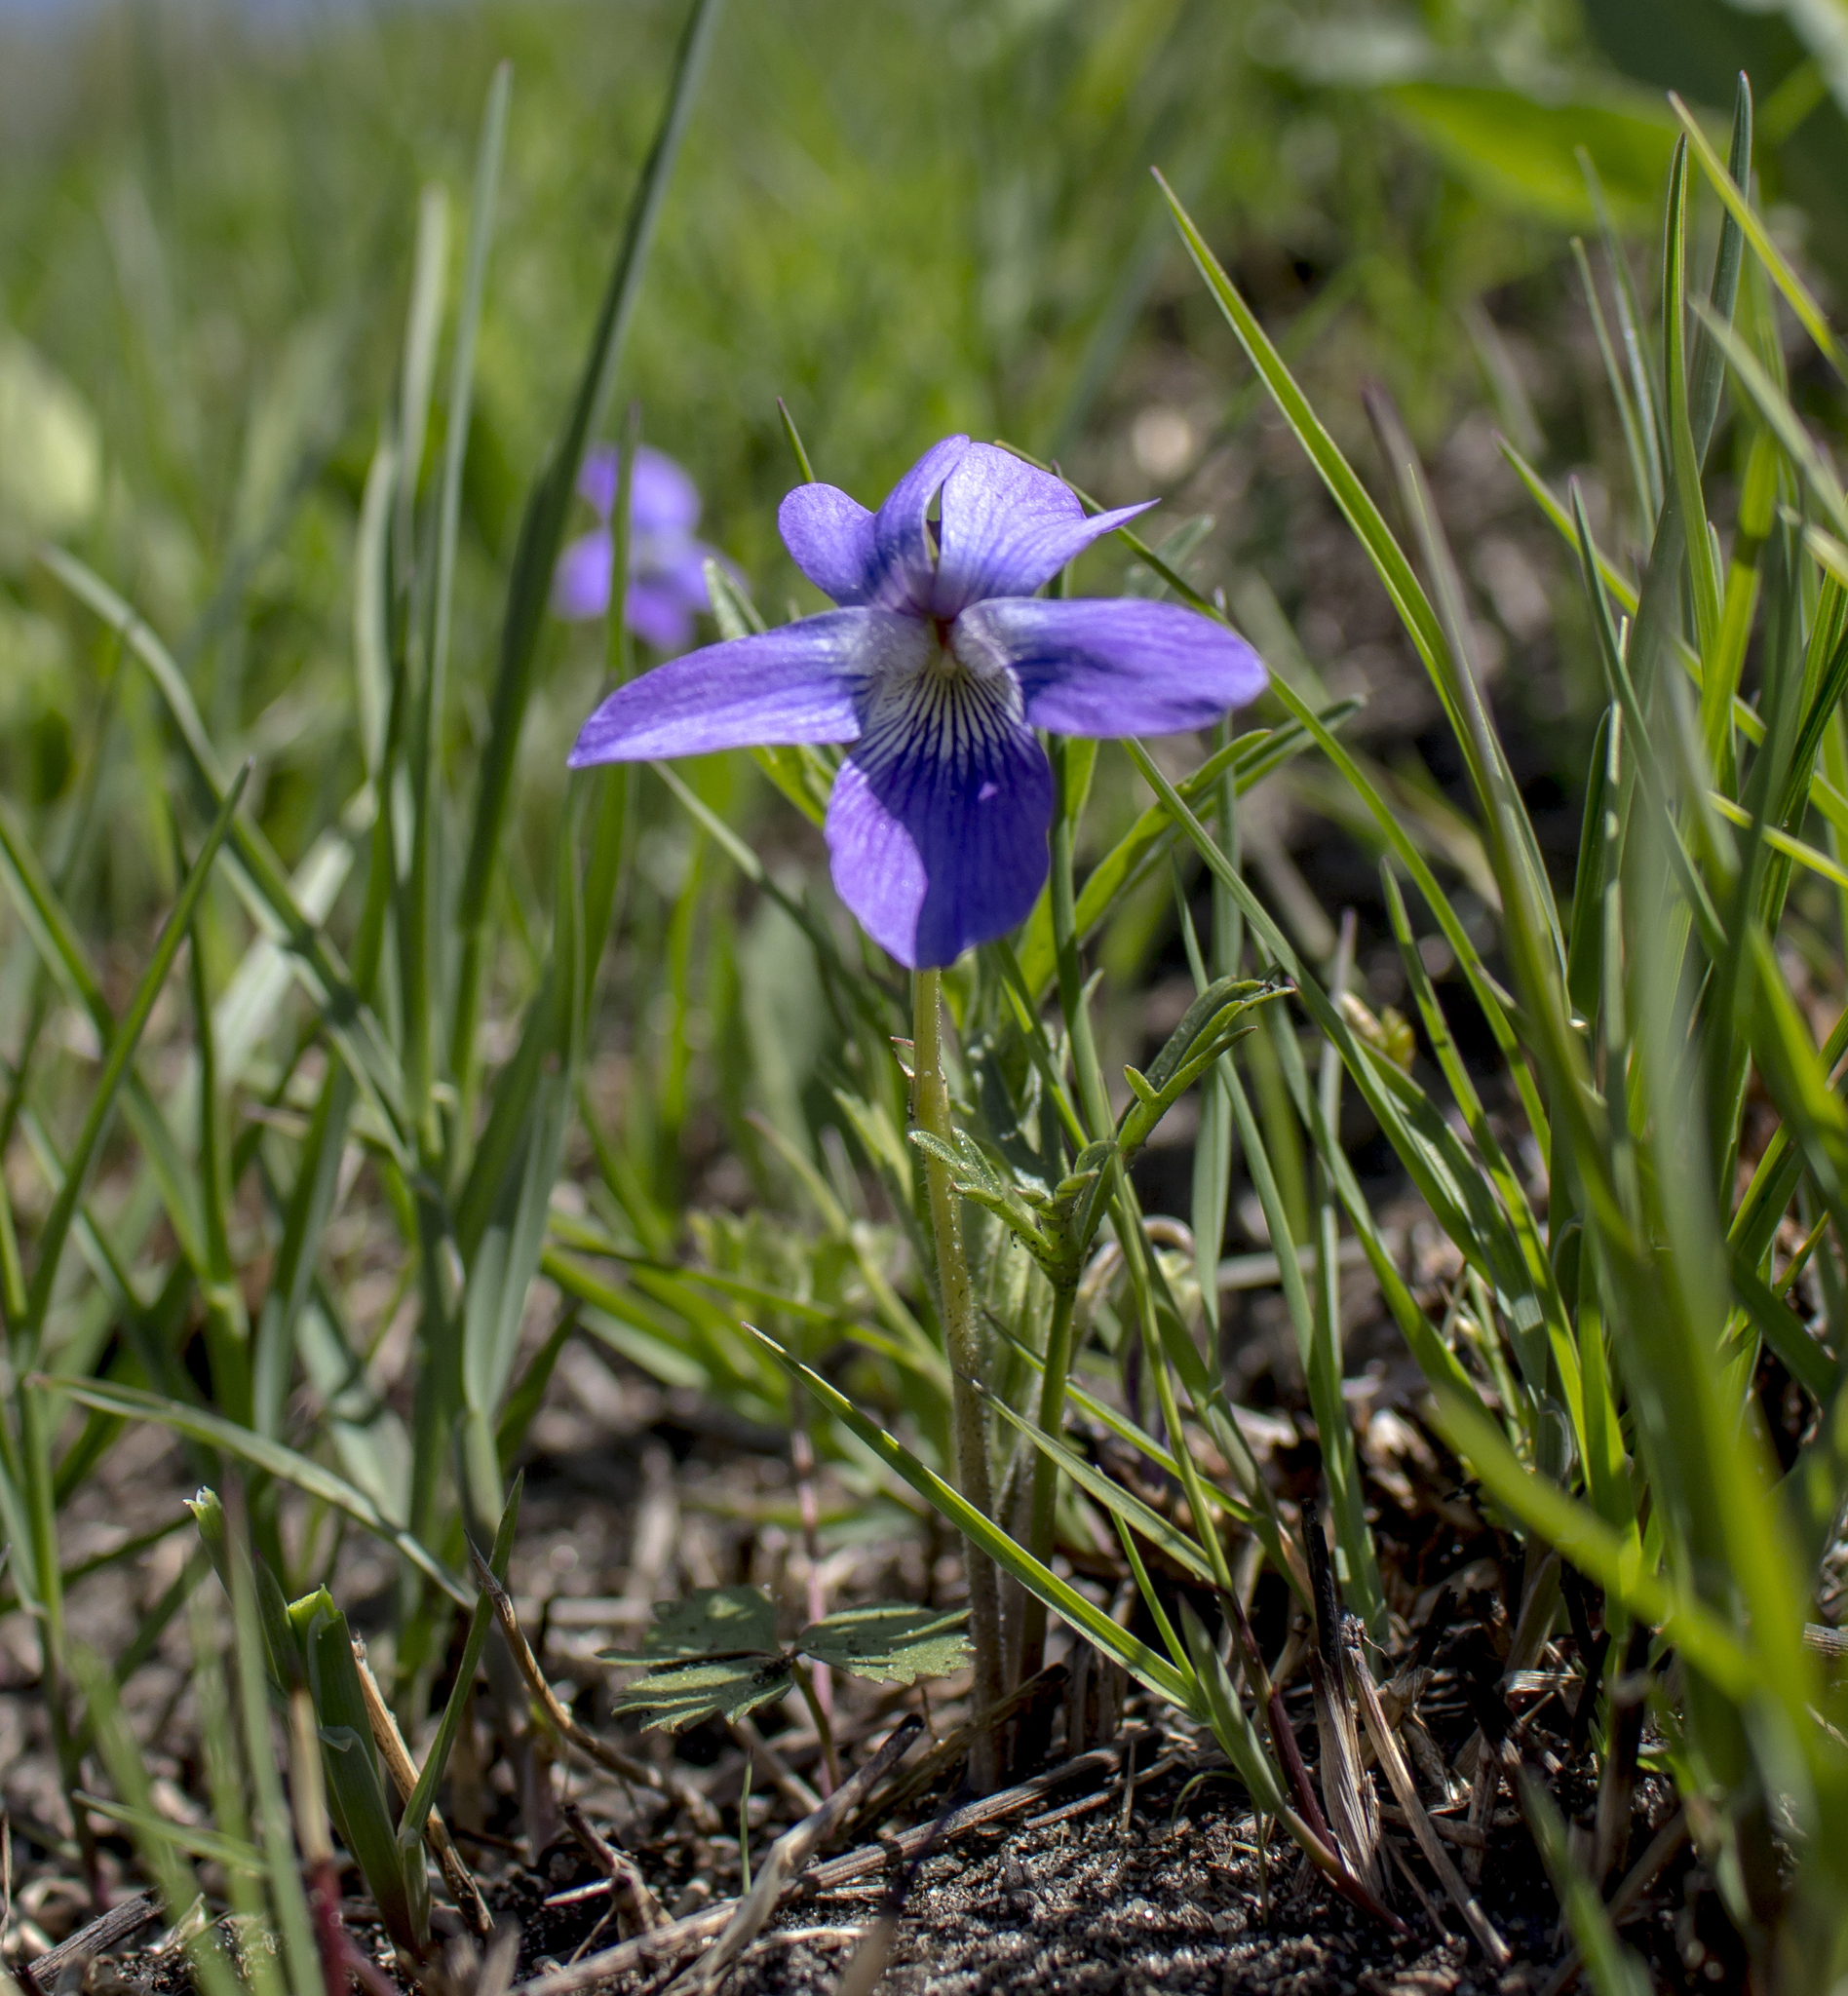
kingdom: Plantae
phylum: Tracheophyta
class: Magnoliopsida
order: Malpighiales
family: Violaceae
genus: Viola
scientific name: Viola pedatifida
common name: Prairie violet
